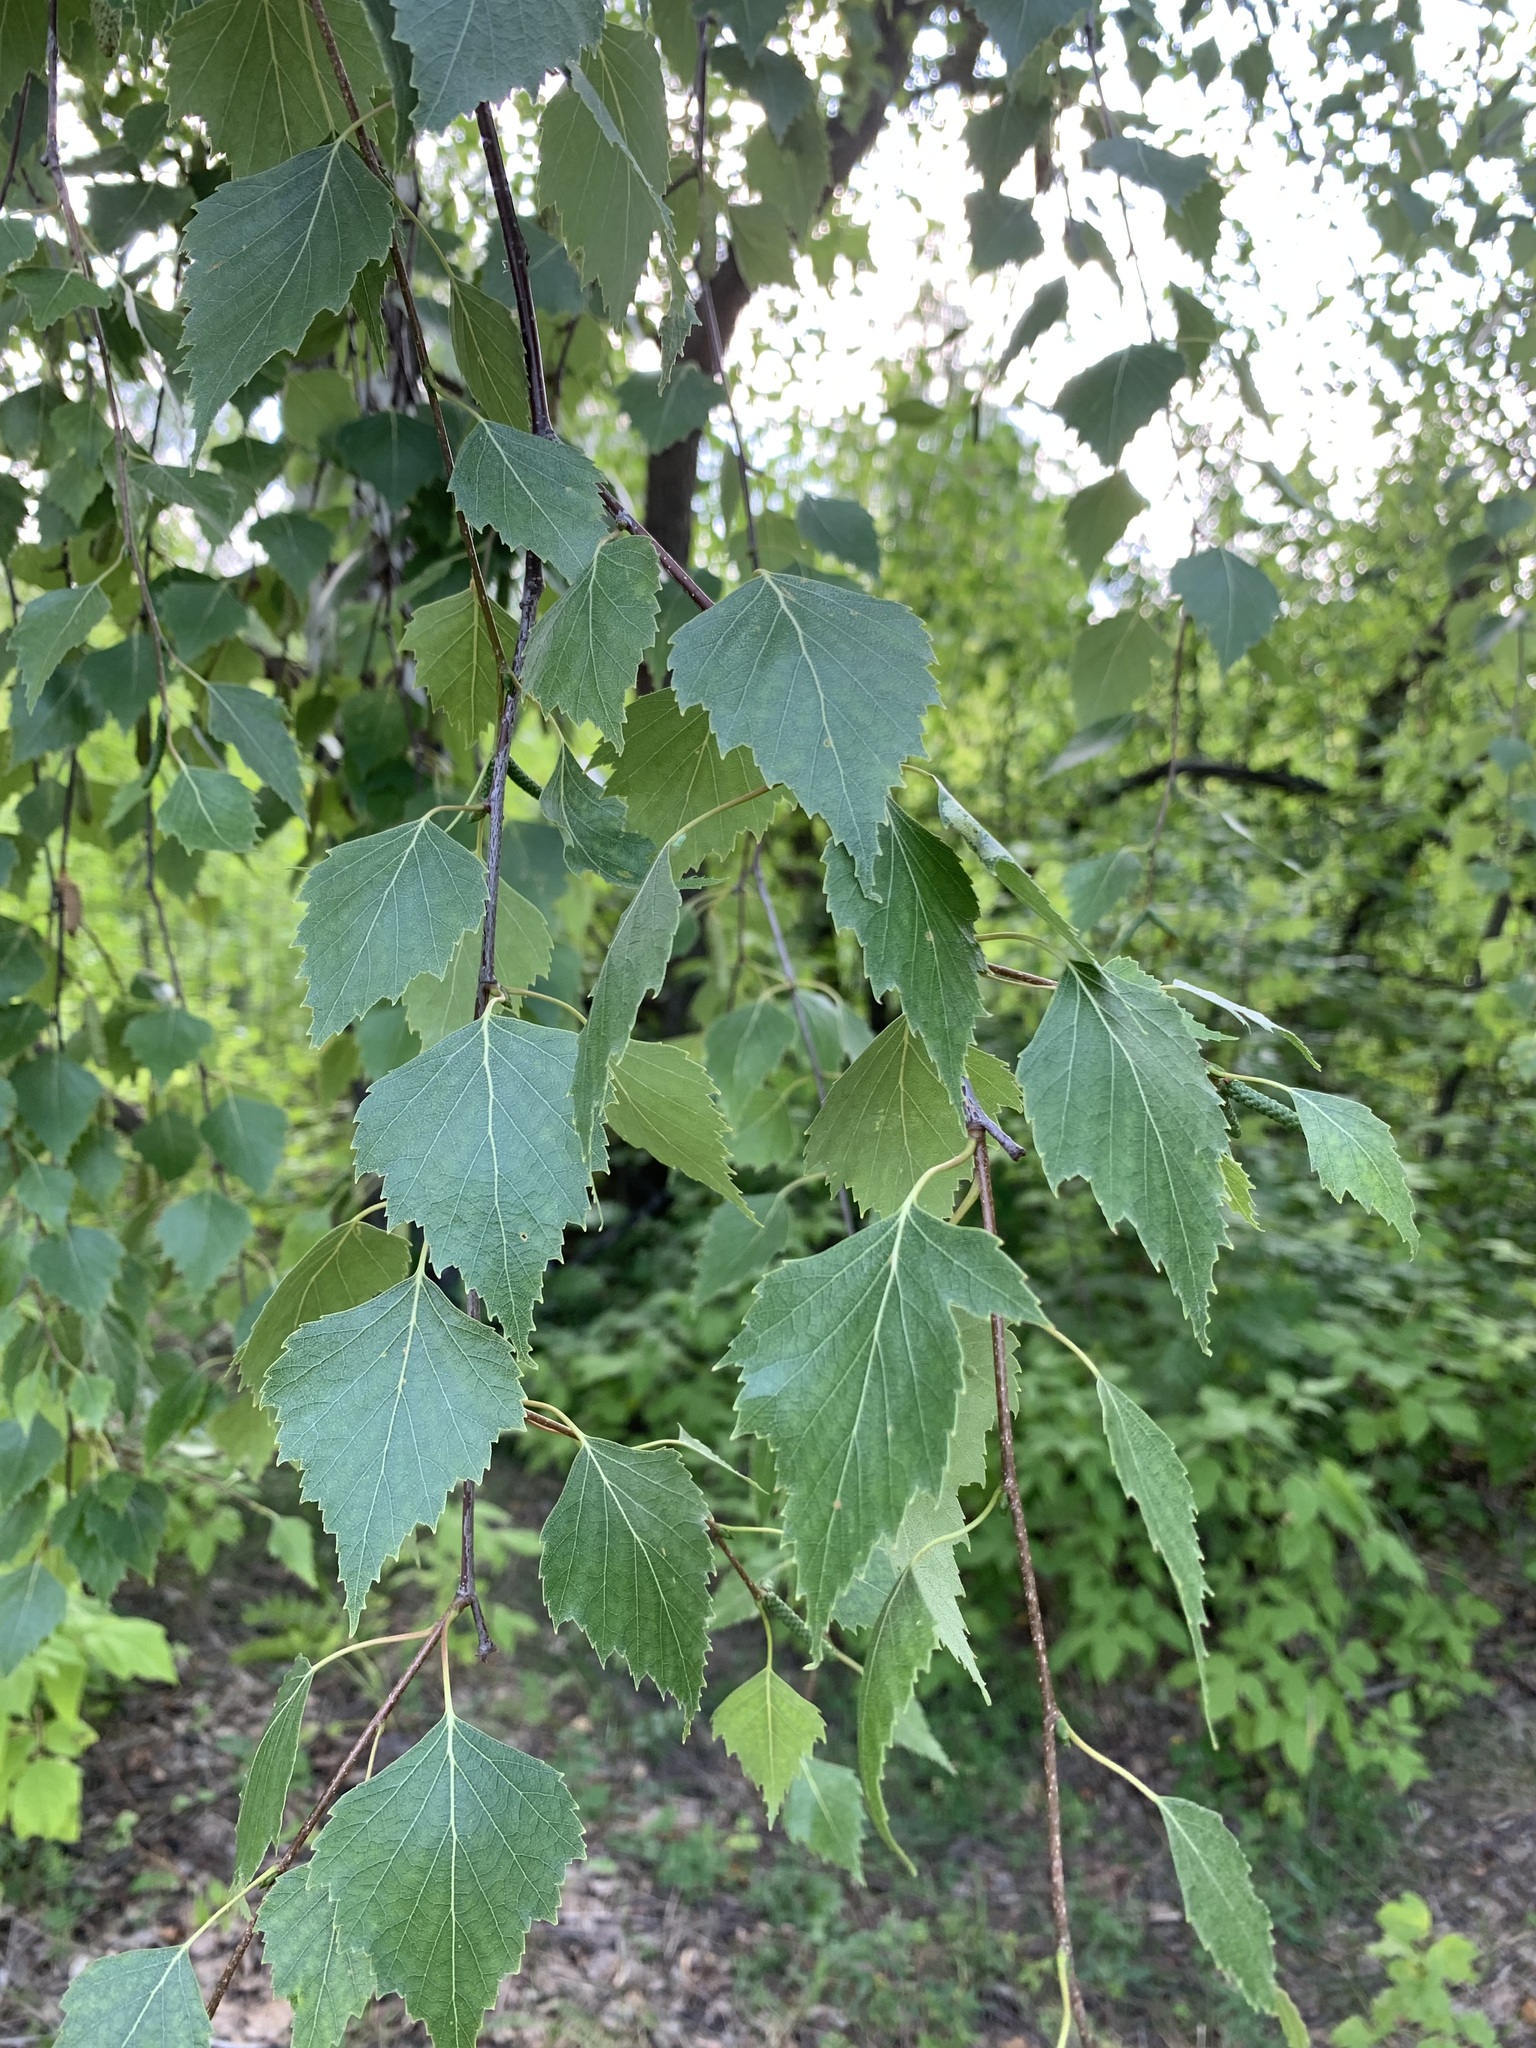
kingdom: Plantae
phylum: Tracheophyta
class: Magnoliopsida
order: Fagales
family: Betulaceae
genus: Betula
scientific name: Betula pendula
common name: Silver birch
